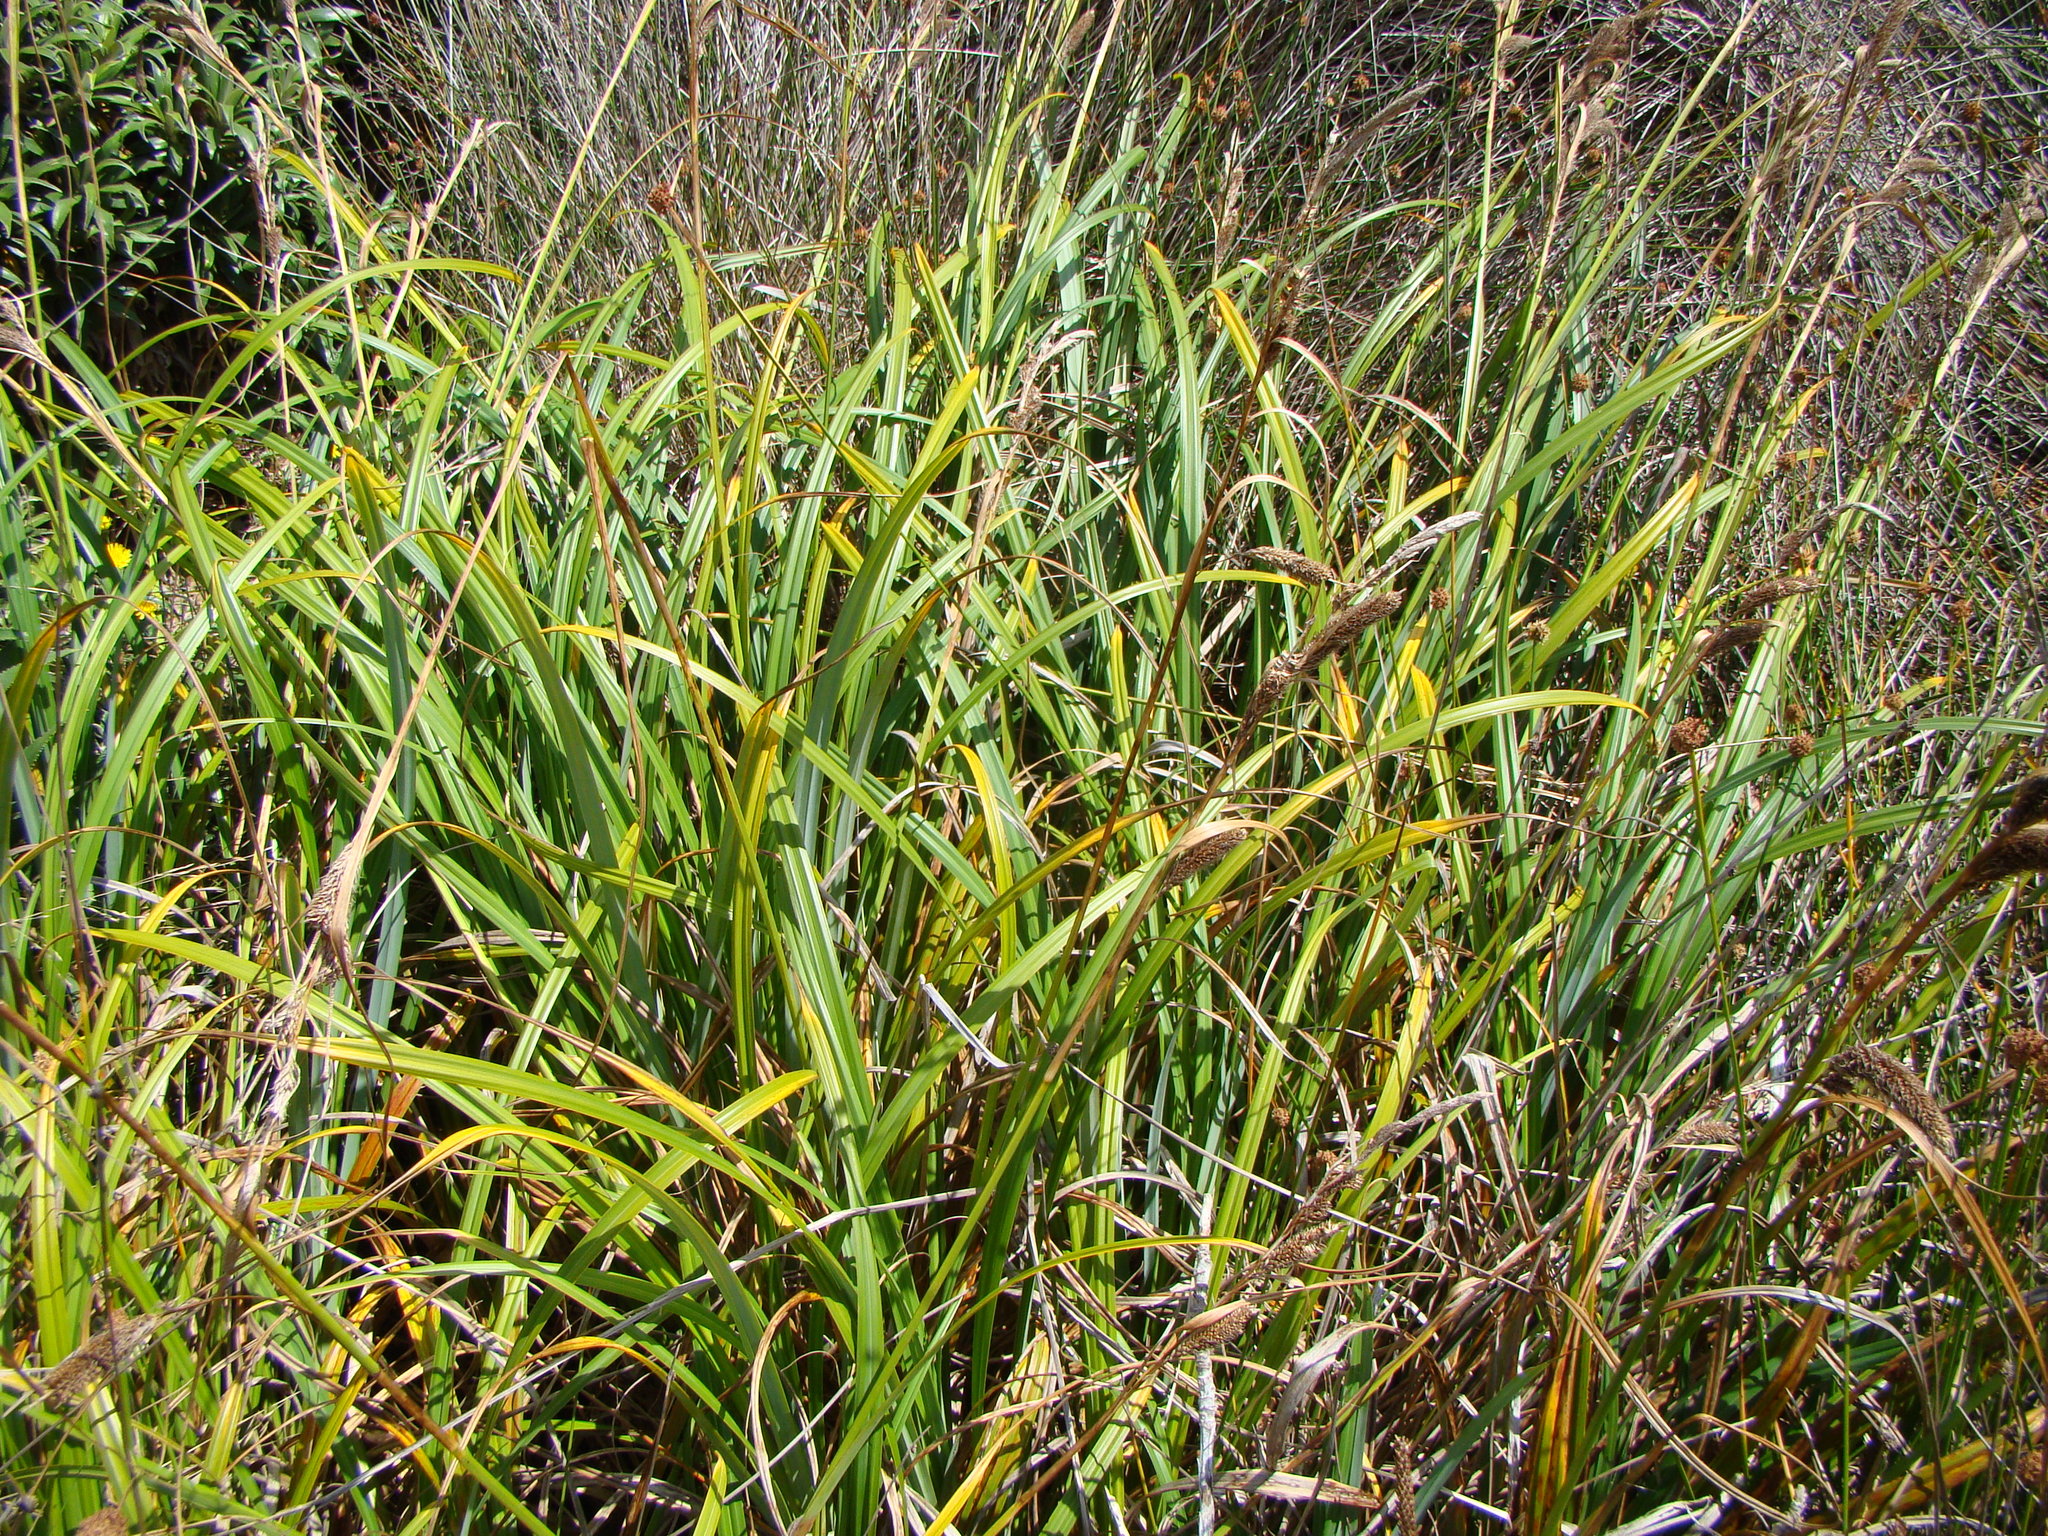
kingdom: Plantae
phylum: Tracheophyta
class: Liliopsida
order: Poales
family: Cyperaceae
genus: Carex
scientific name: Carex trifida
